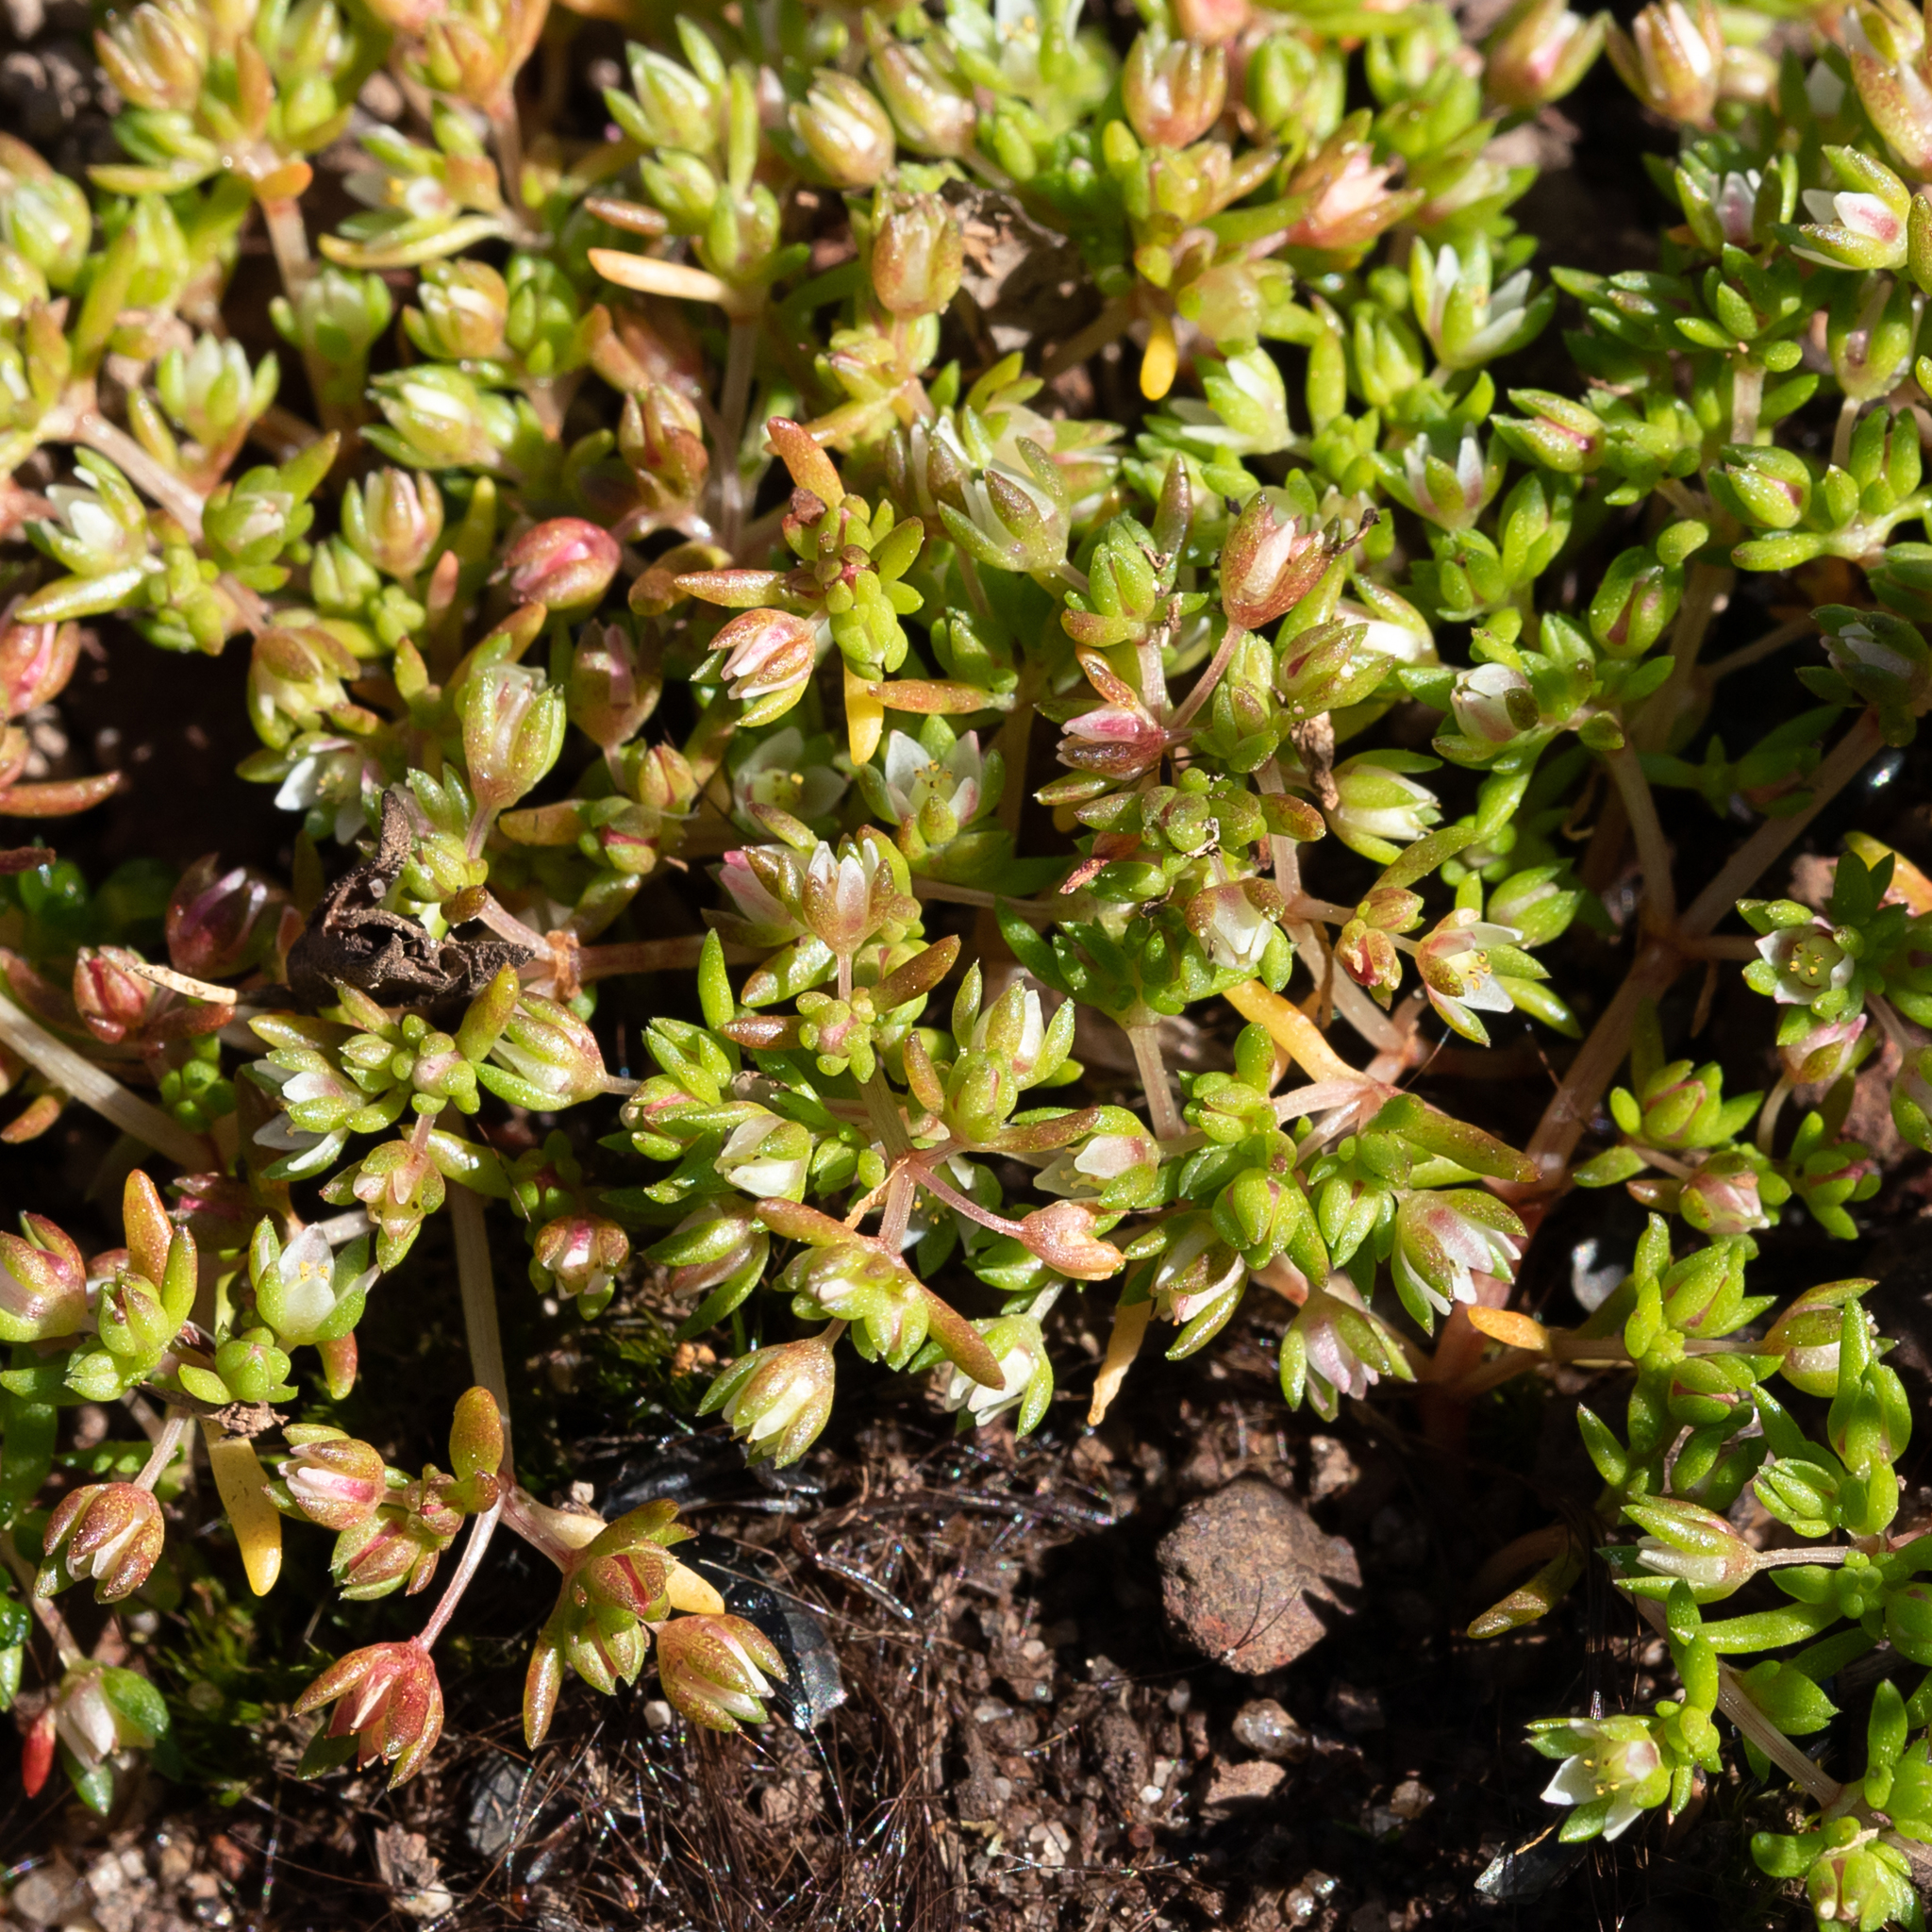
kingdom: Plantae
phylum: Tracheophyta
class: Magnoliopsida
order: Saxifragales
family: Crassulaceae
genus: Crassula
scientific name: Crassula decumbens
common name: Scilly pigmyweed
